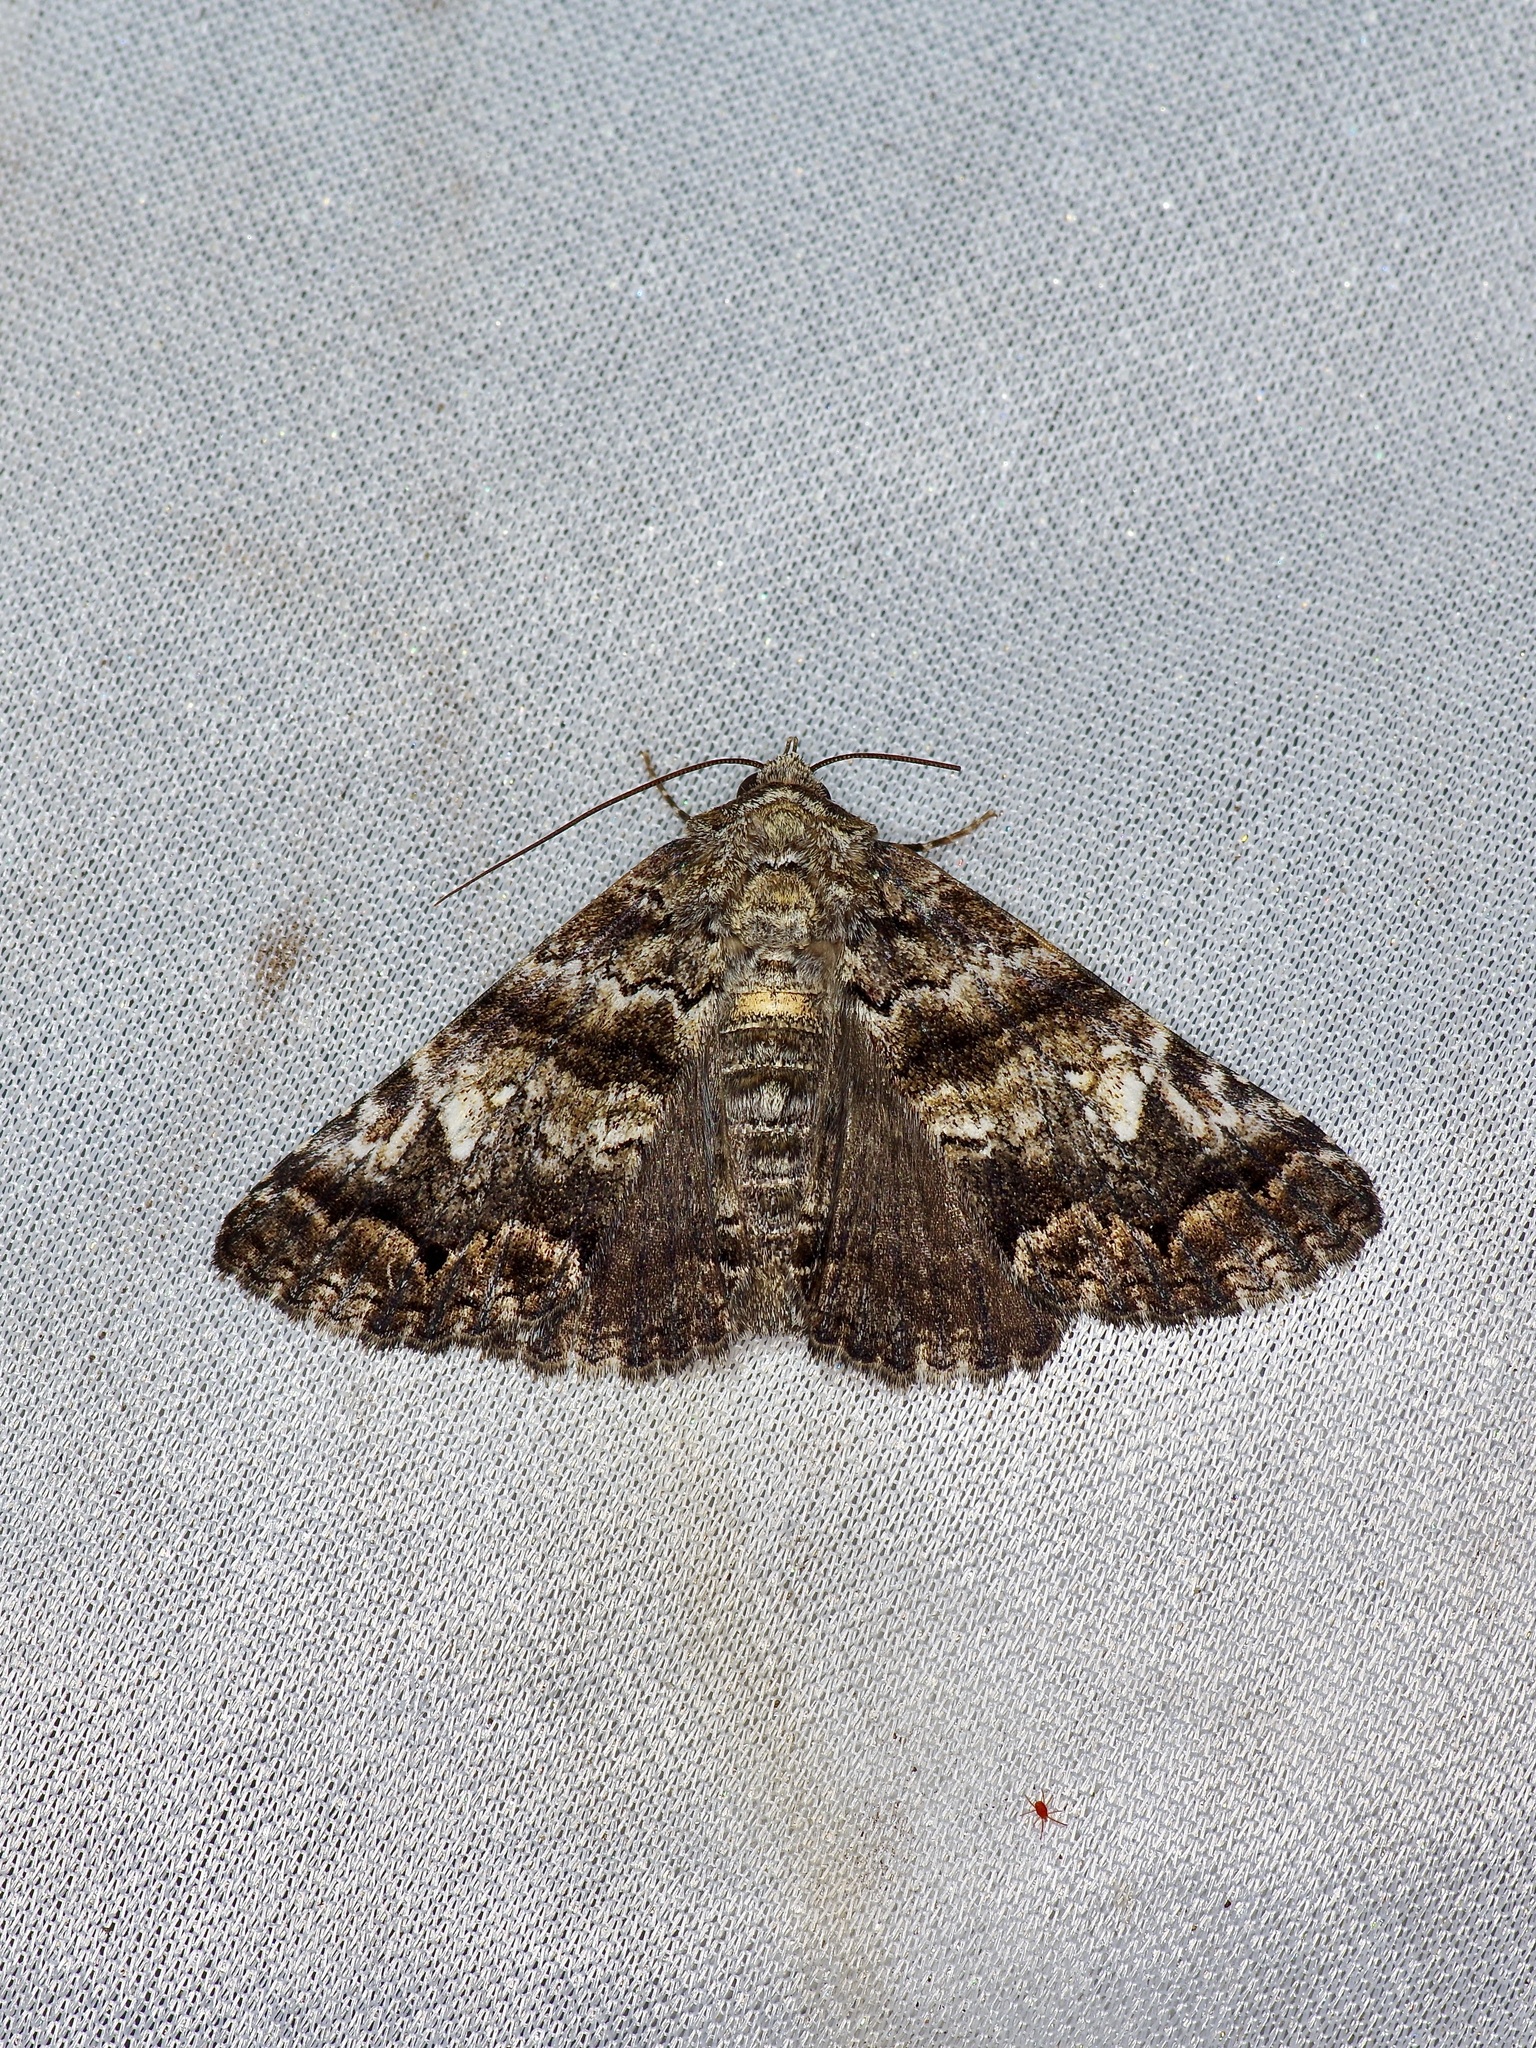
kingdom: Animalia
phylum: Arthropoda
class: Insecta
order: Lepidoptera
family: Erebidae
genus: Metria
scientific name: Metria amella
